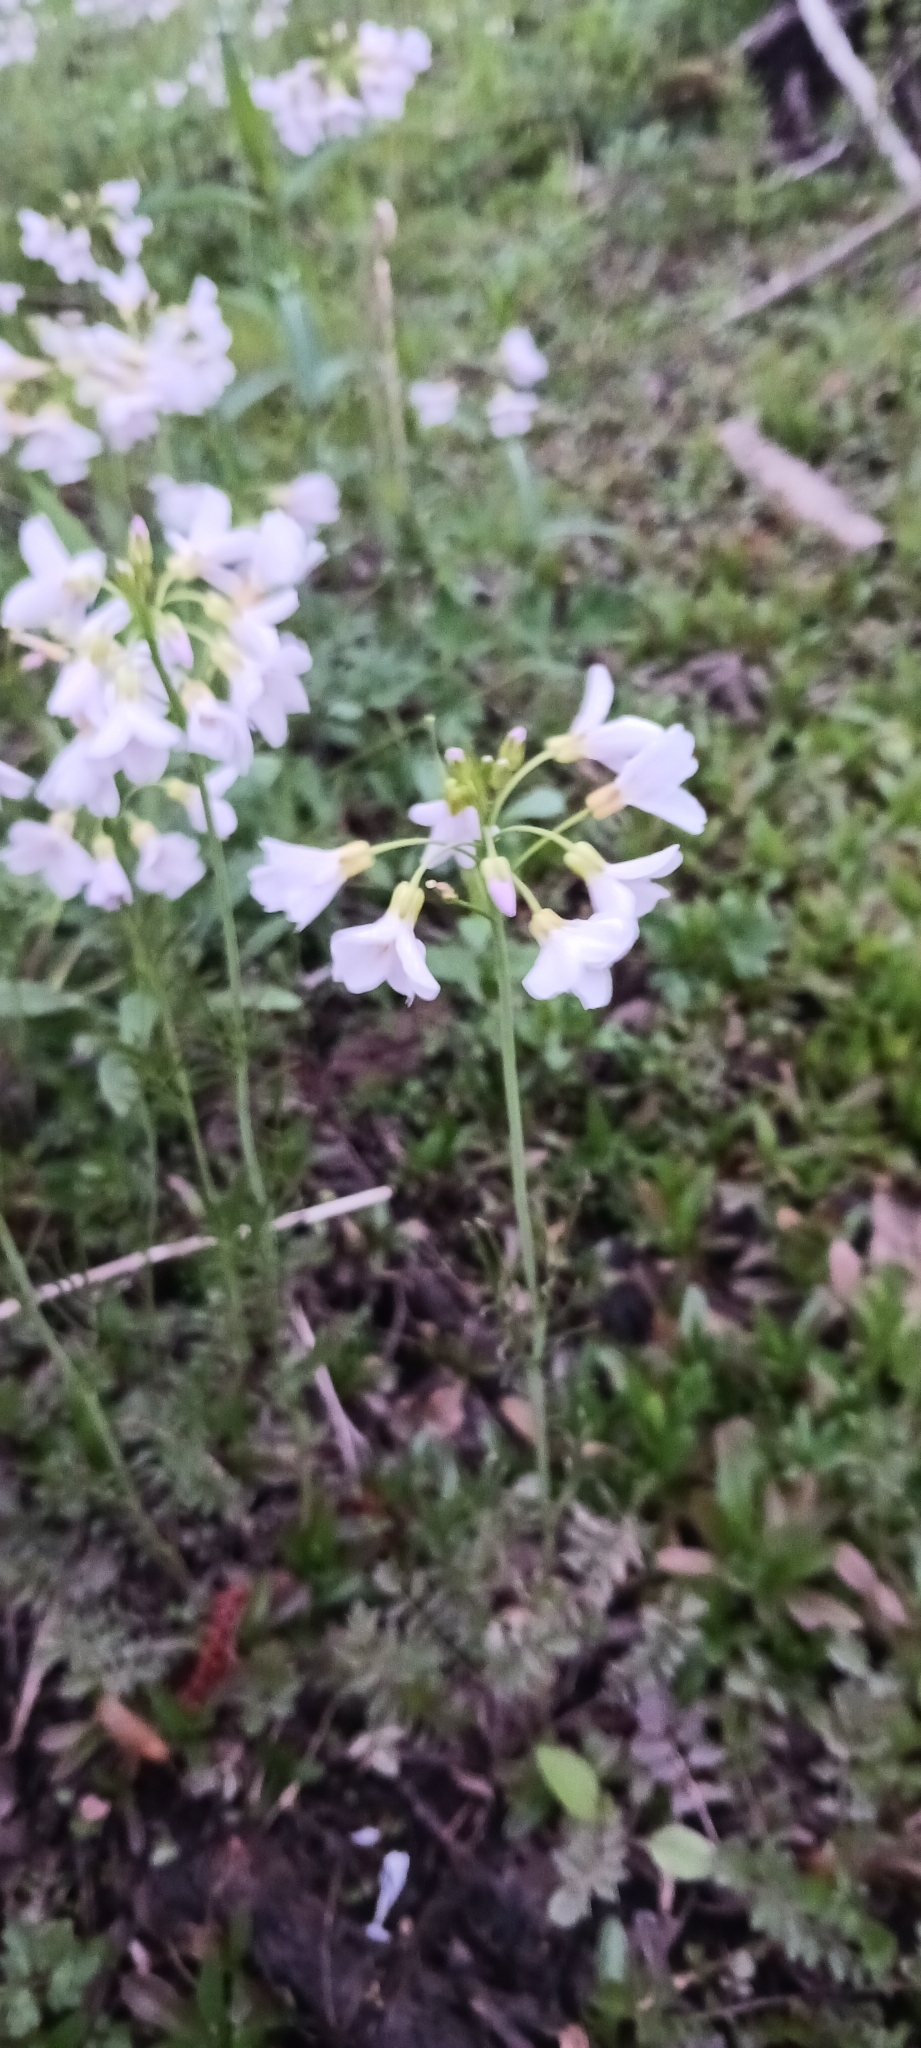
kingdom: Plantae
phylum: Tracheophyta
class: Magnoliopsida
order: Brassicales
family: Brassicaceae
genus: Cardamine
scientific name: Cardamine pratensis
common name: Cuckoo flower
